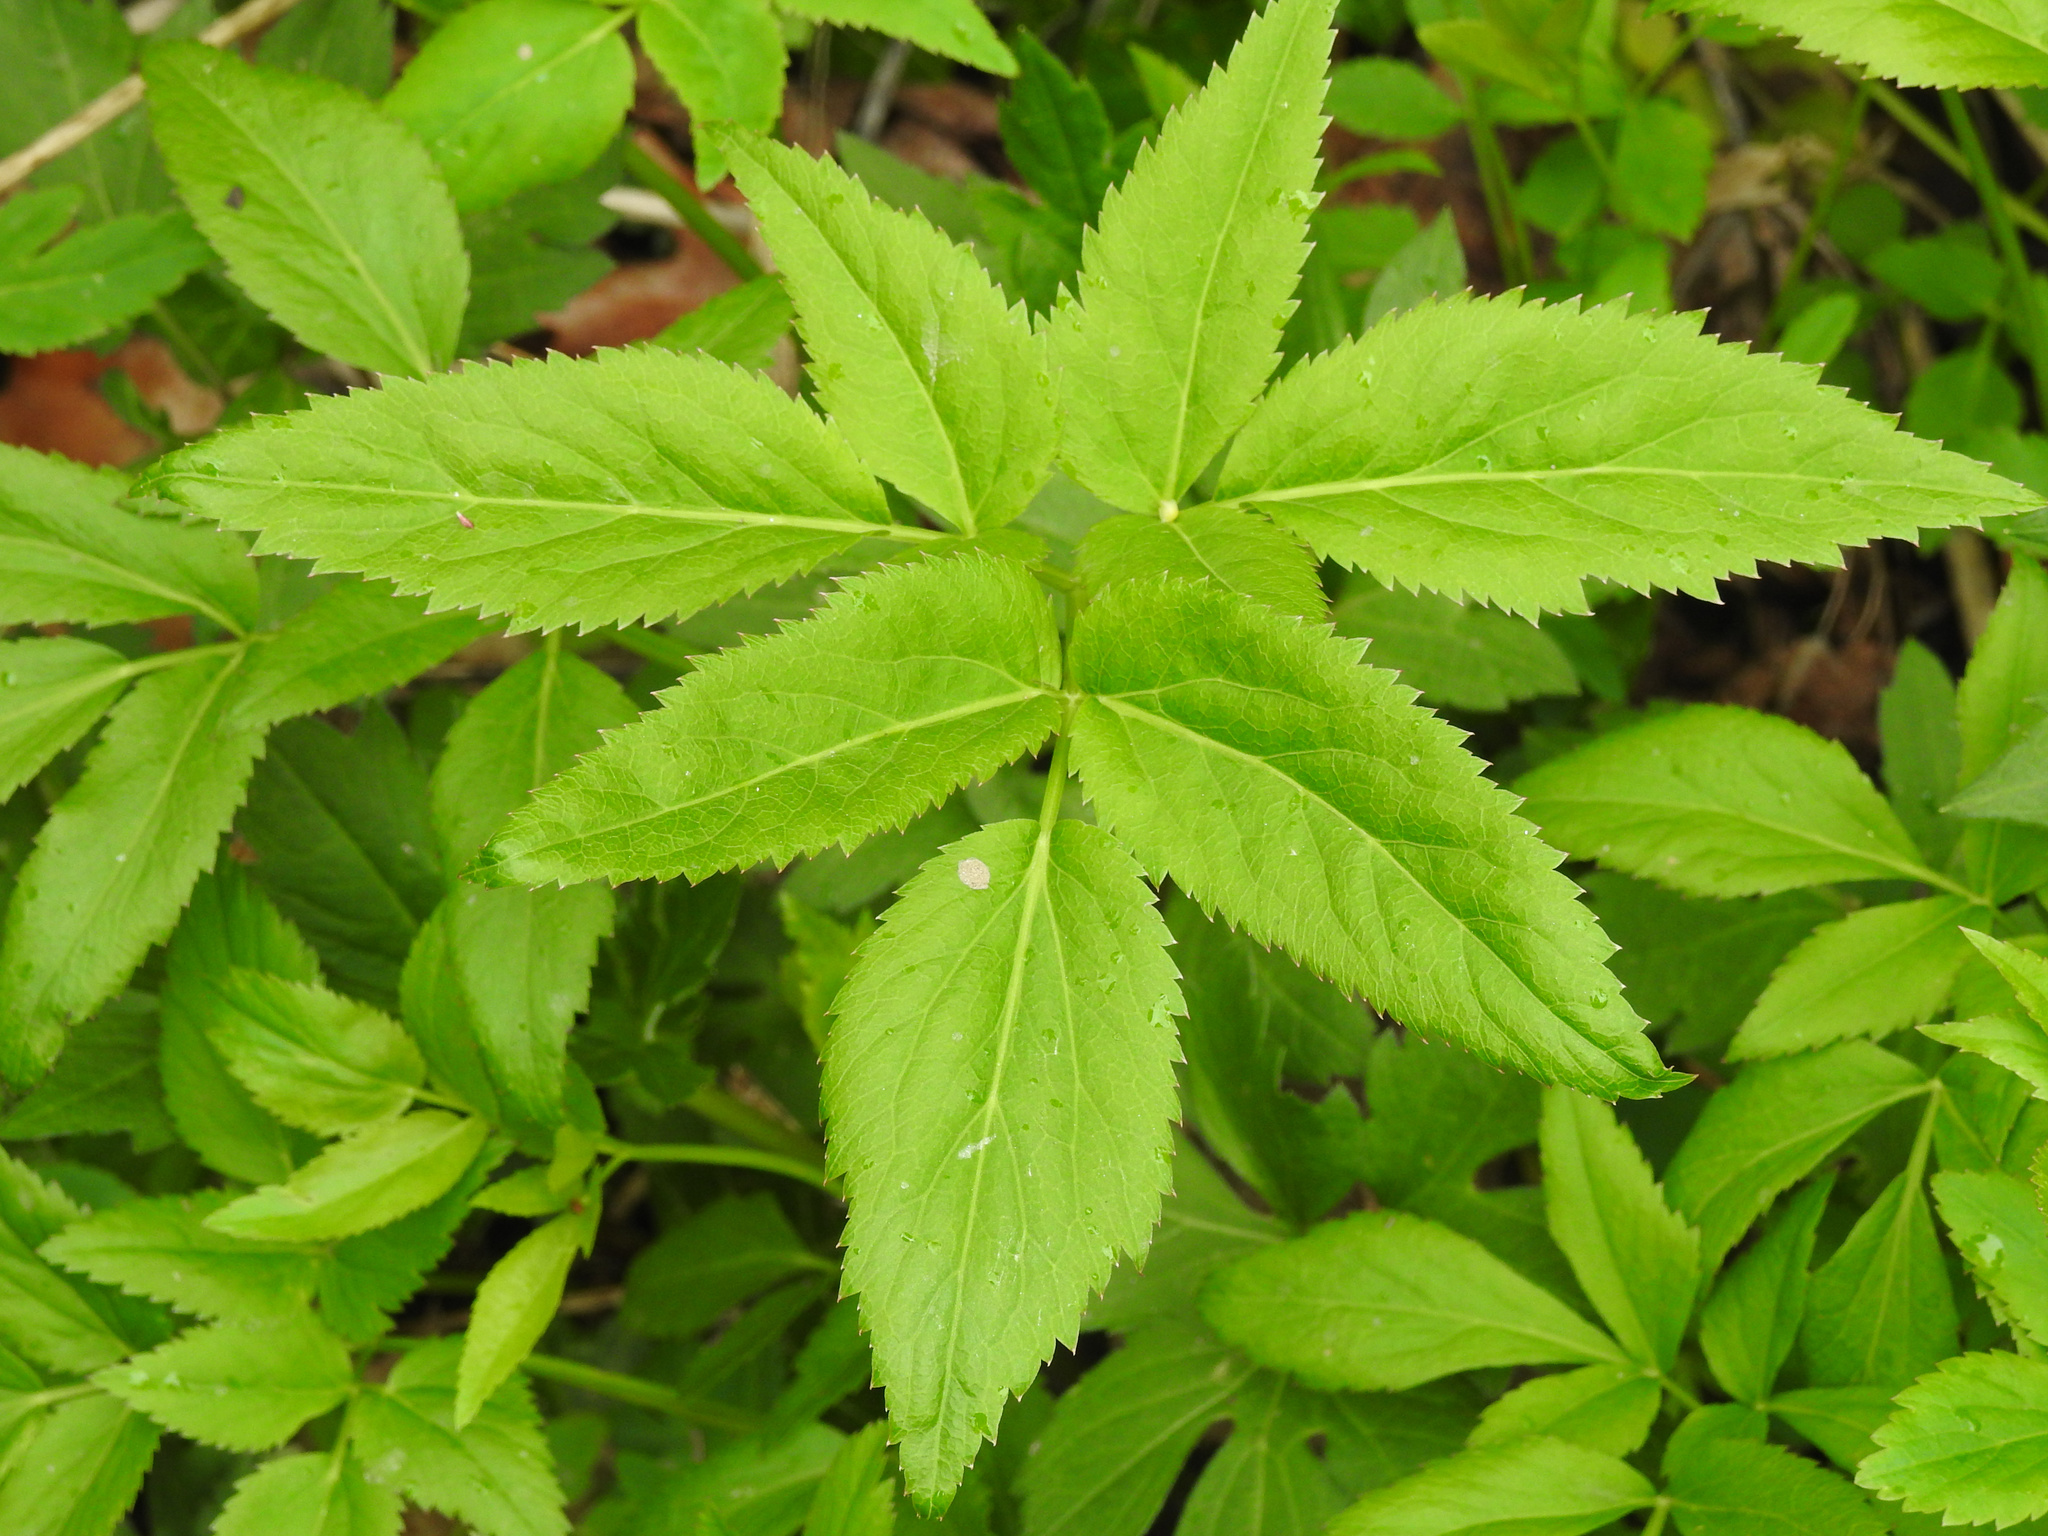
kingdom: Plantae
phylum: Tracheophyta
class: Magnoliopsida
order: Apiales
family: Apiaceae
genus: Aegopodium
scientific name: Aegopodium podagraria
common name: Ground-elder
